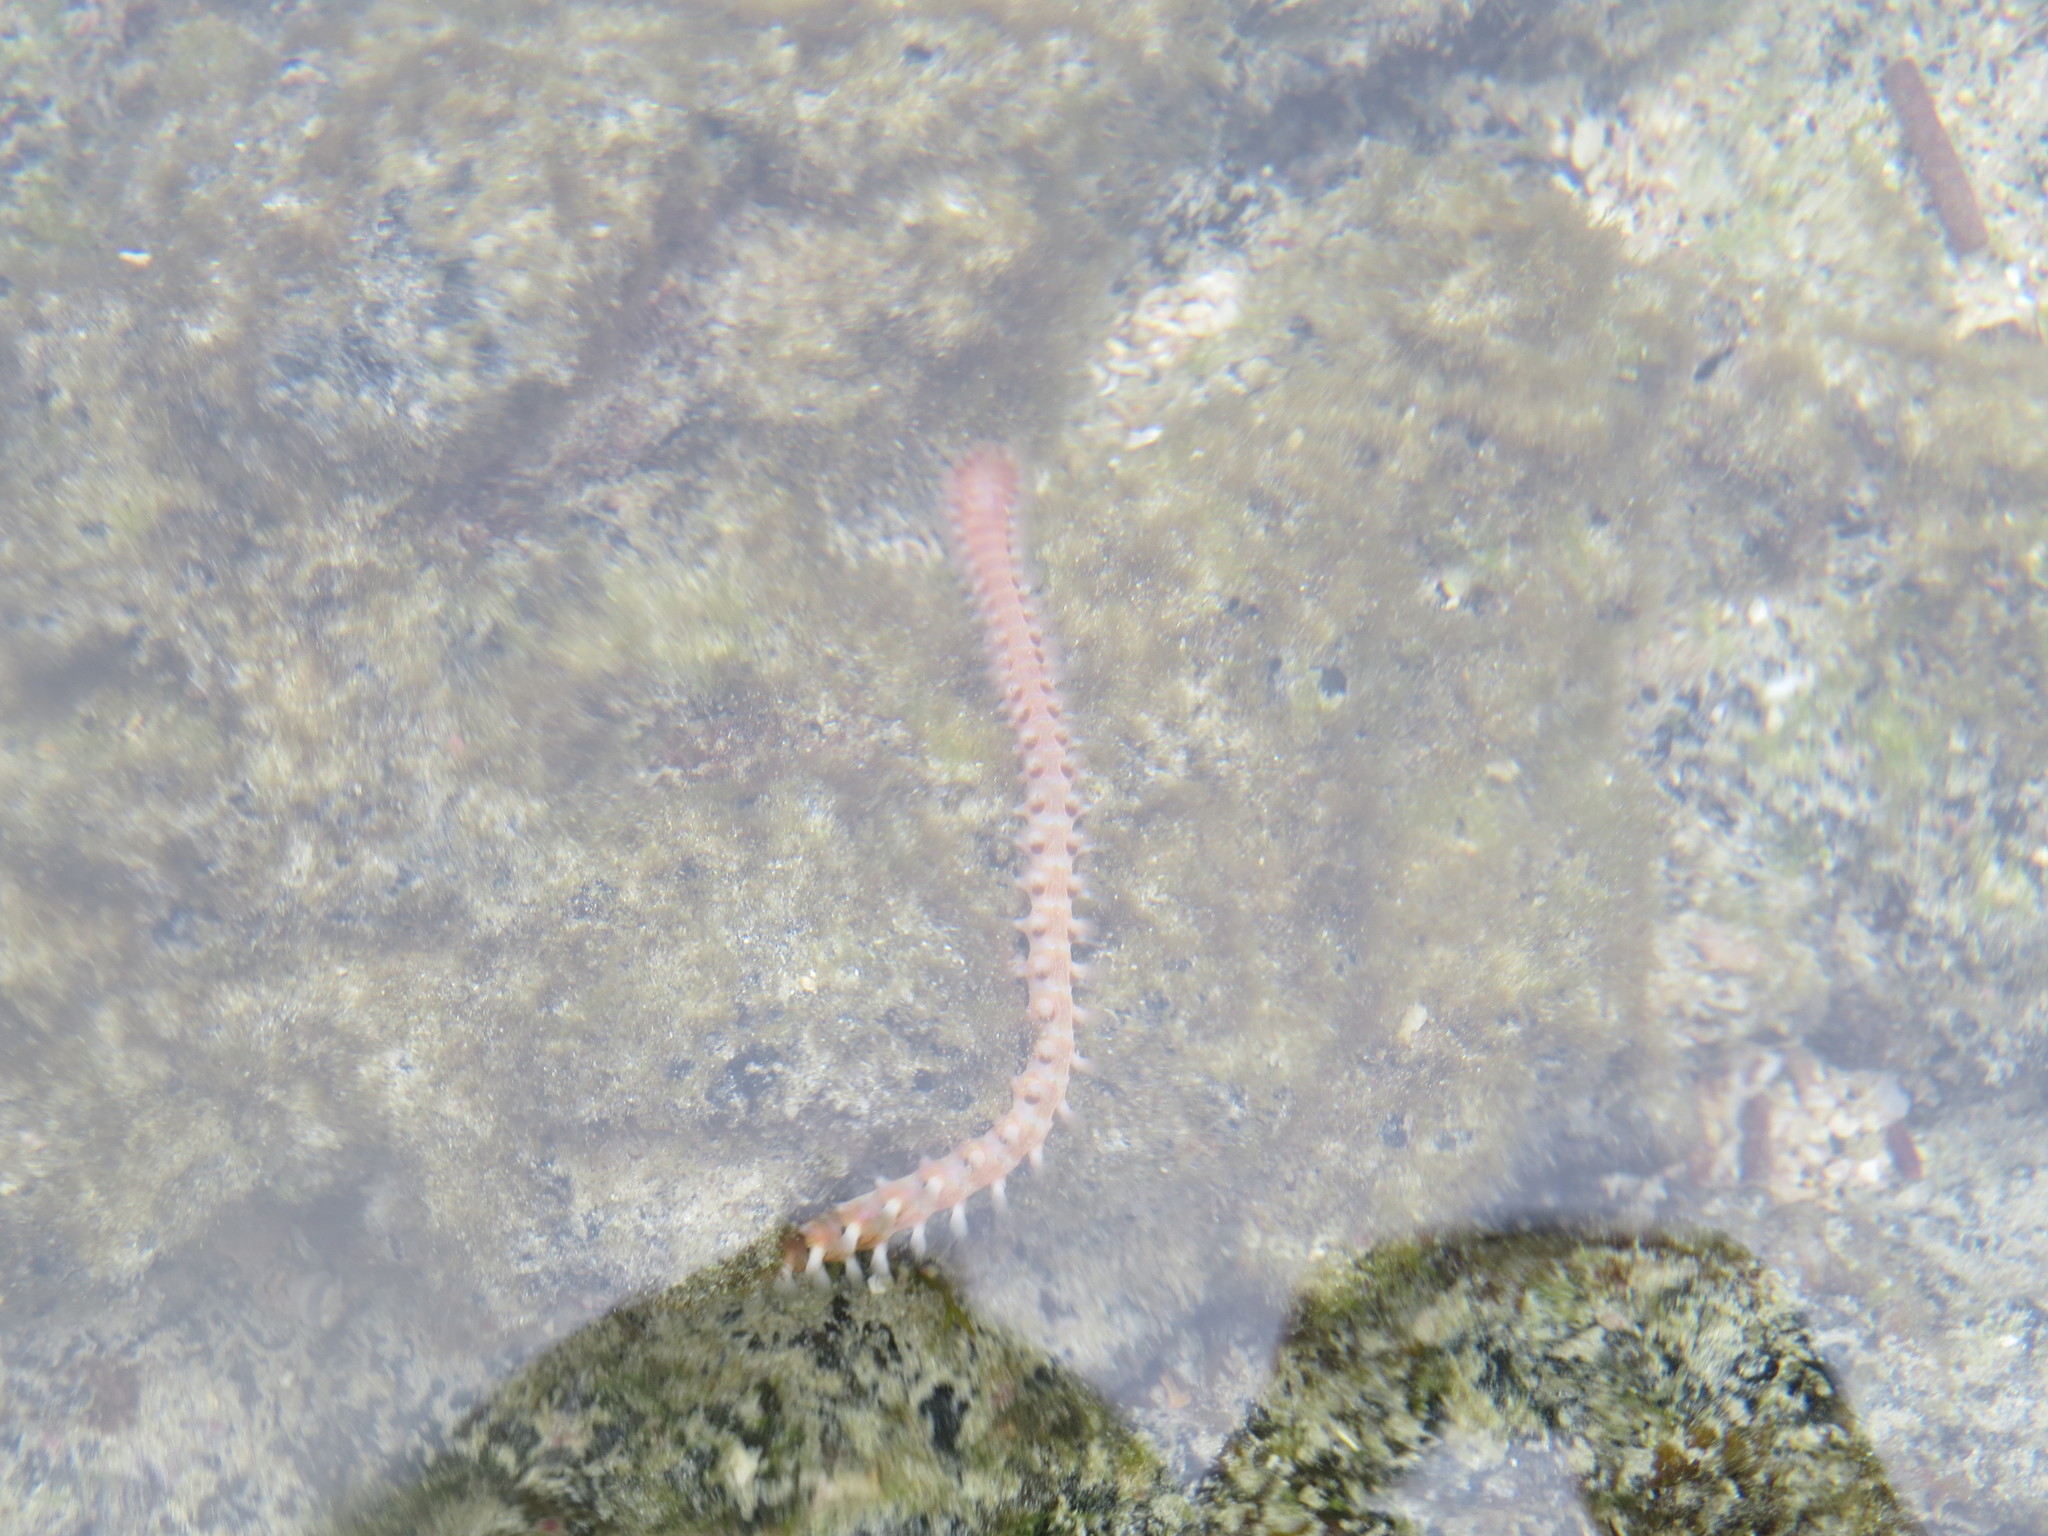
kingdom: Animalia
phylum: Annelida
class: Polychaeta
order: Amphinomida
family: Amphinomidae
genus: Eurythoe
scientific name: Eurythoe complanata
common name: Fireworm
